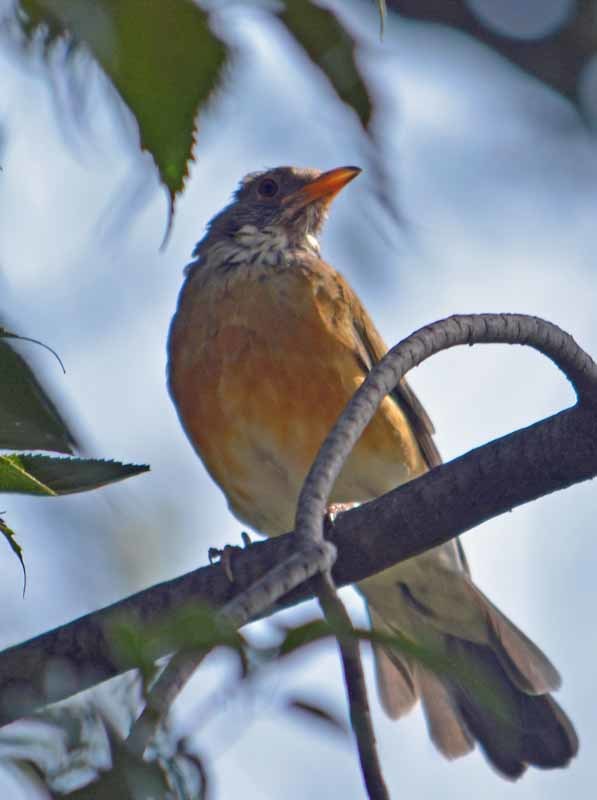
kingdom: Animalia
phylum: Chordata
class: Aves
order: Passeriformes
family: Turdidae
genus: Turdus
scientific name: Turdus rufopalliatus
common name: Rufous-backed robin
